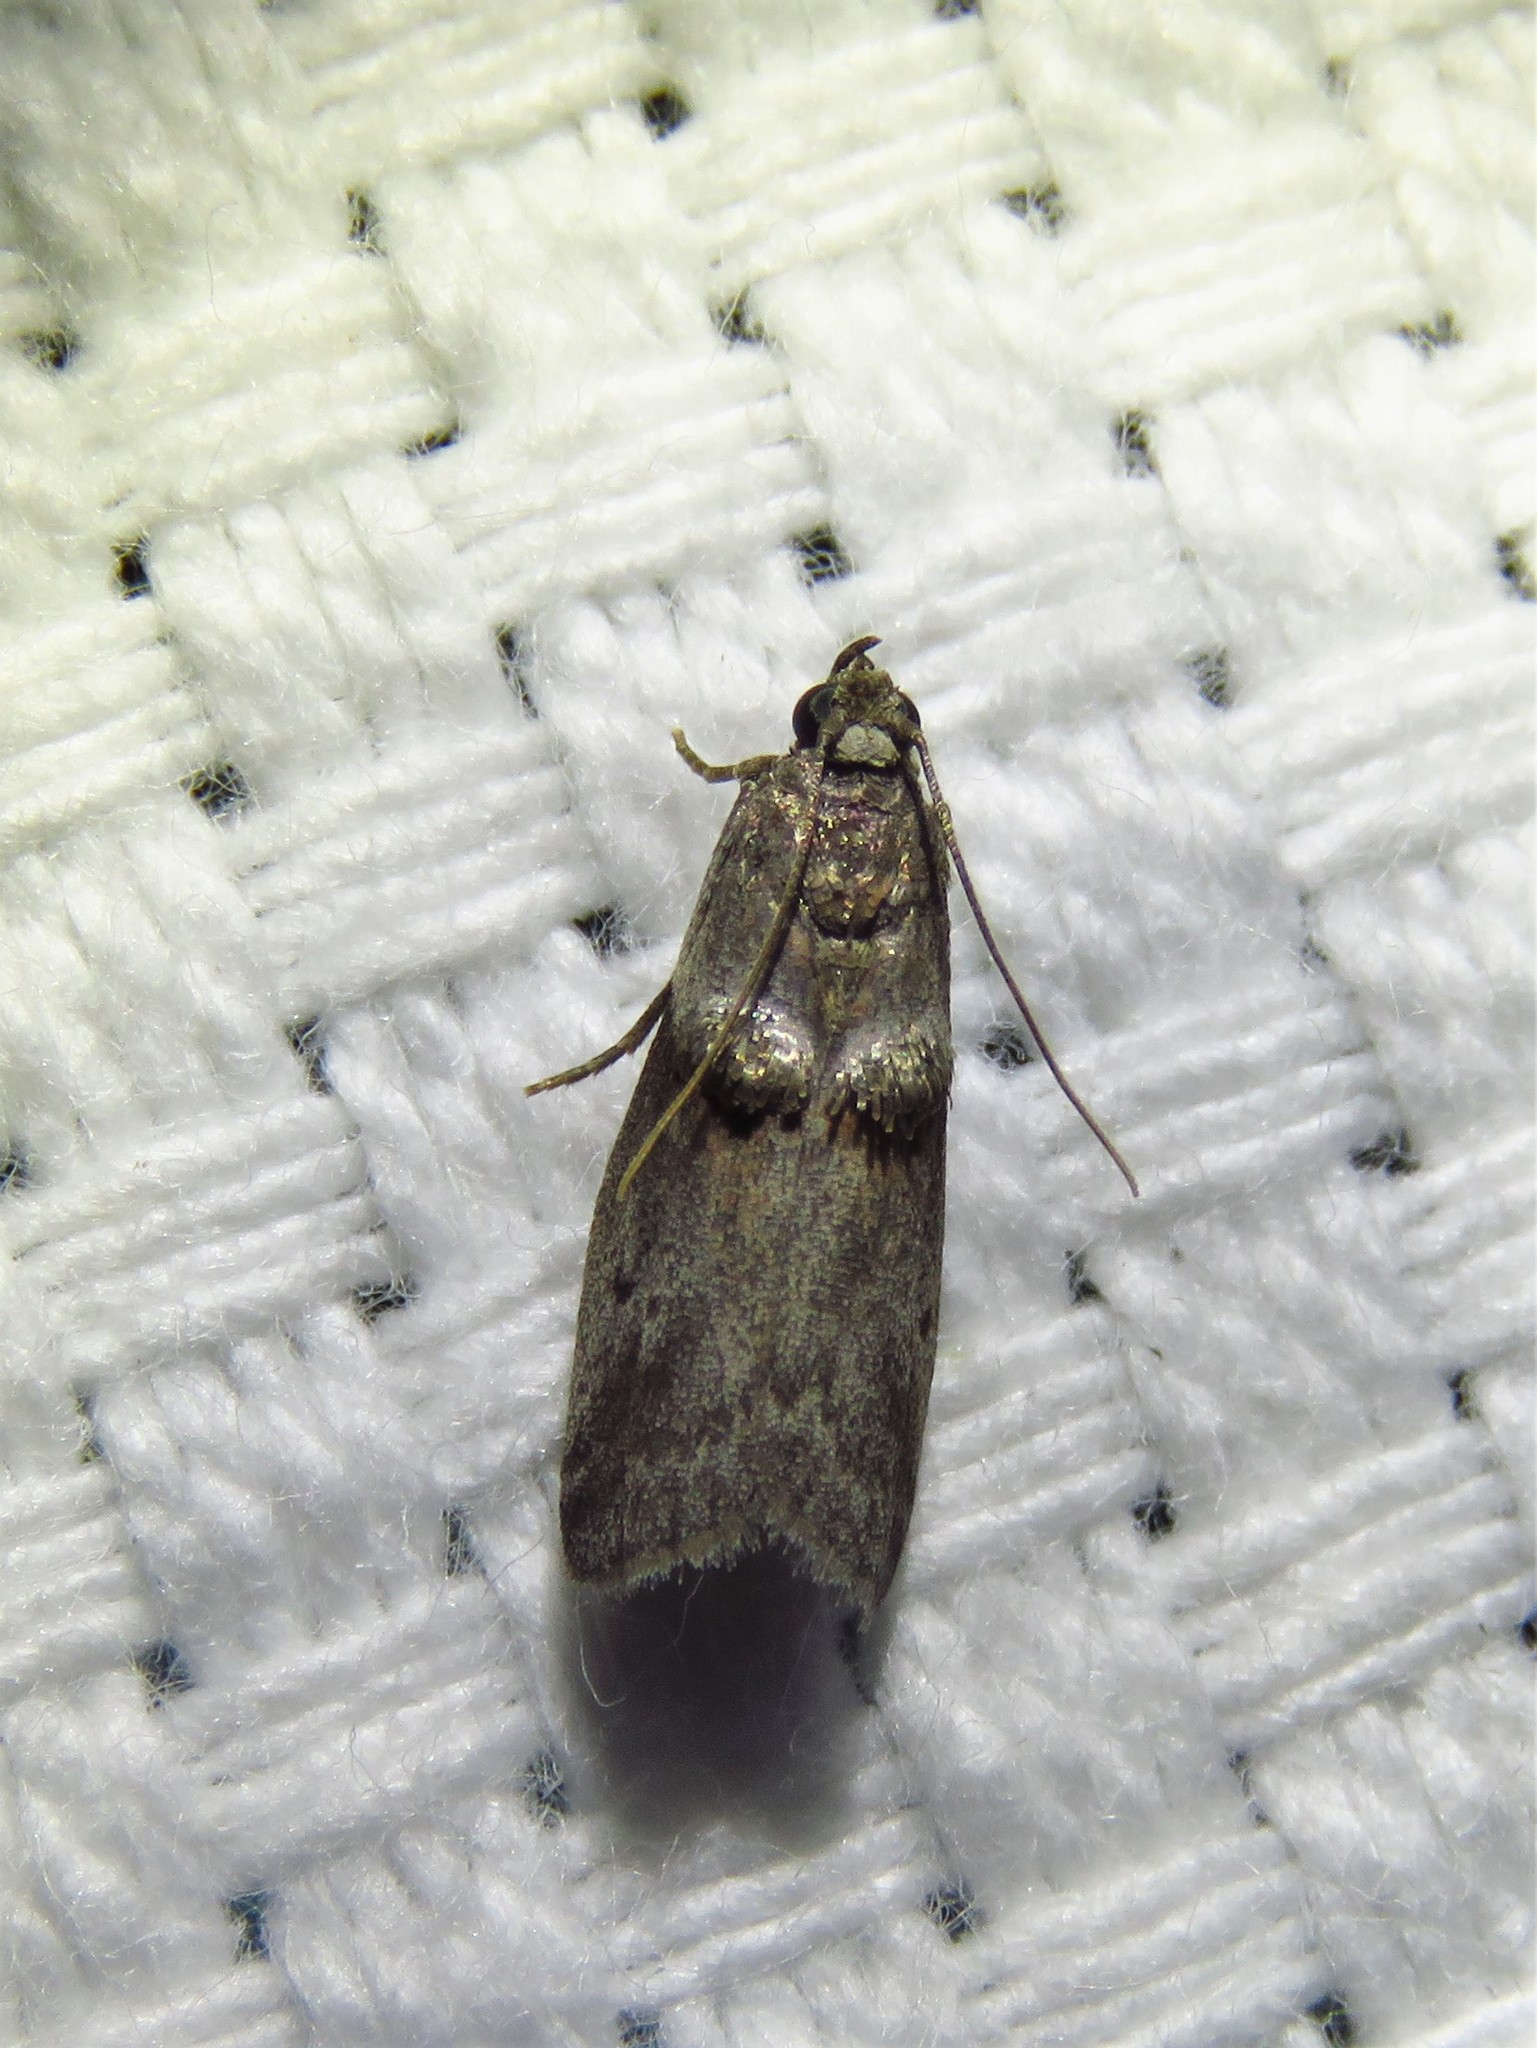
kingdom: Animalia
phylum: Arthropoda
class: Insecta
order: Lepidoptera
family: Pyralidae
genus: Acrobasis
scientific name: Acrobasis caryae
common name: Hickory shoot borer moth
